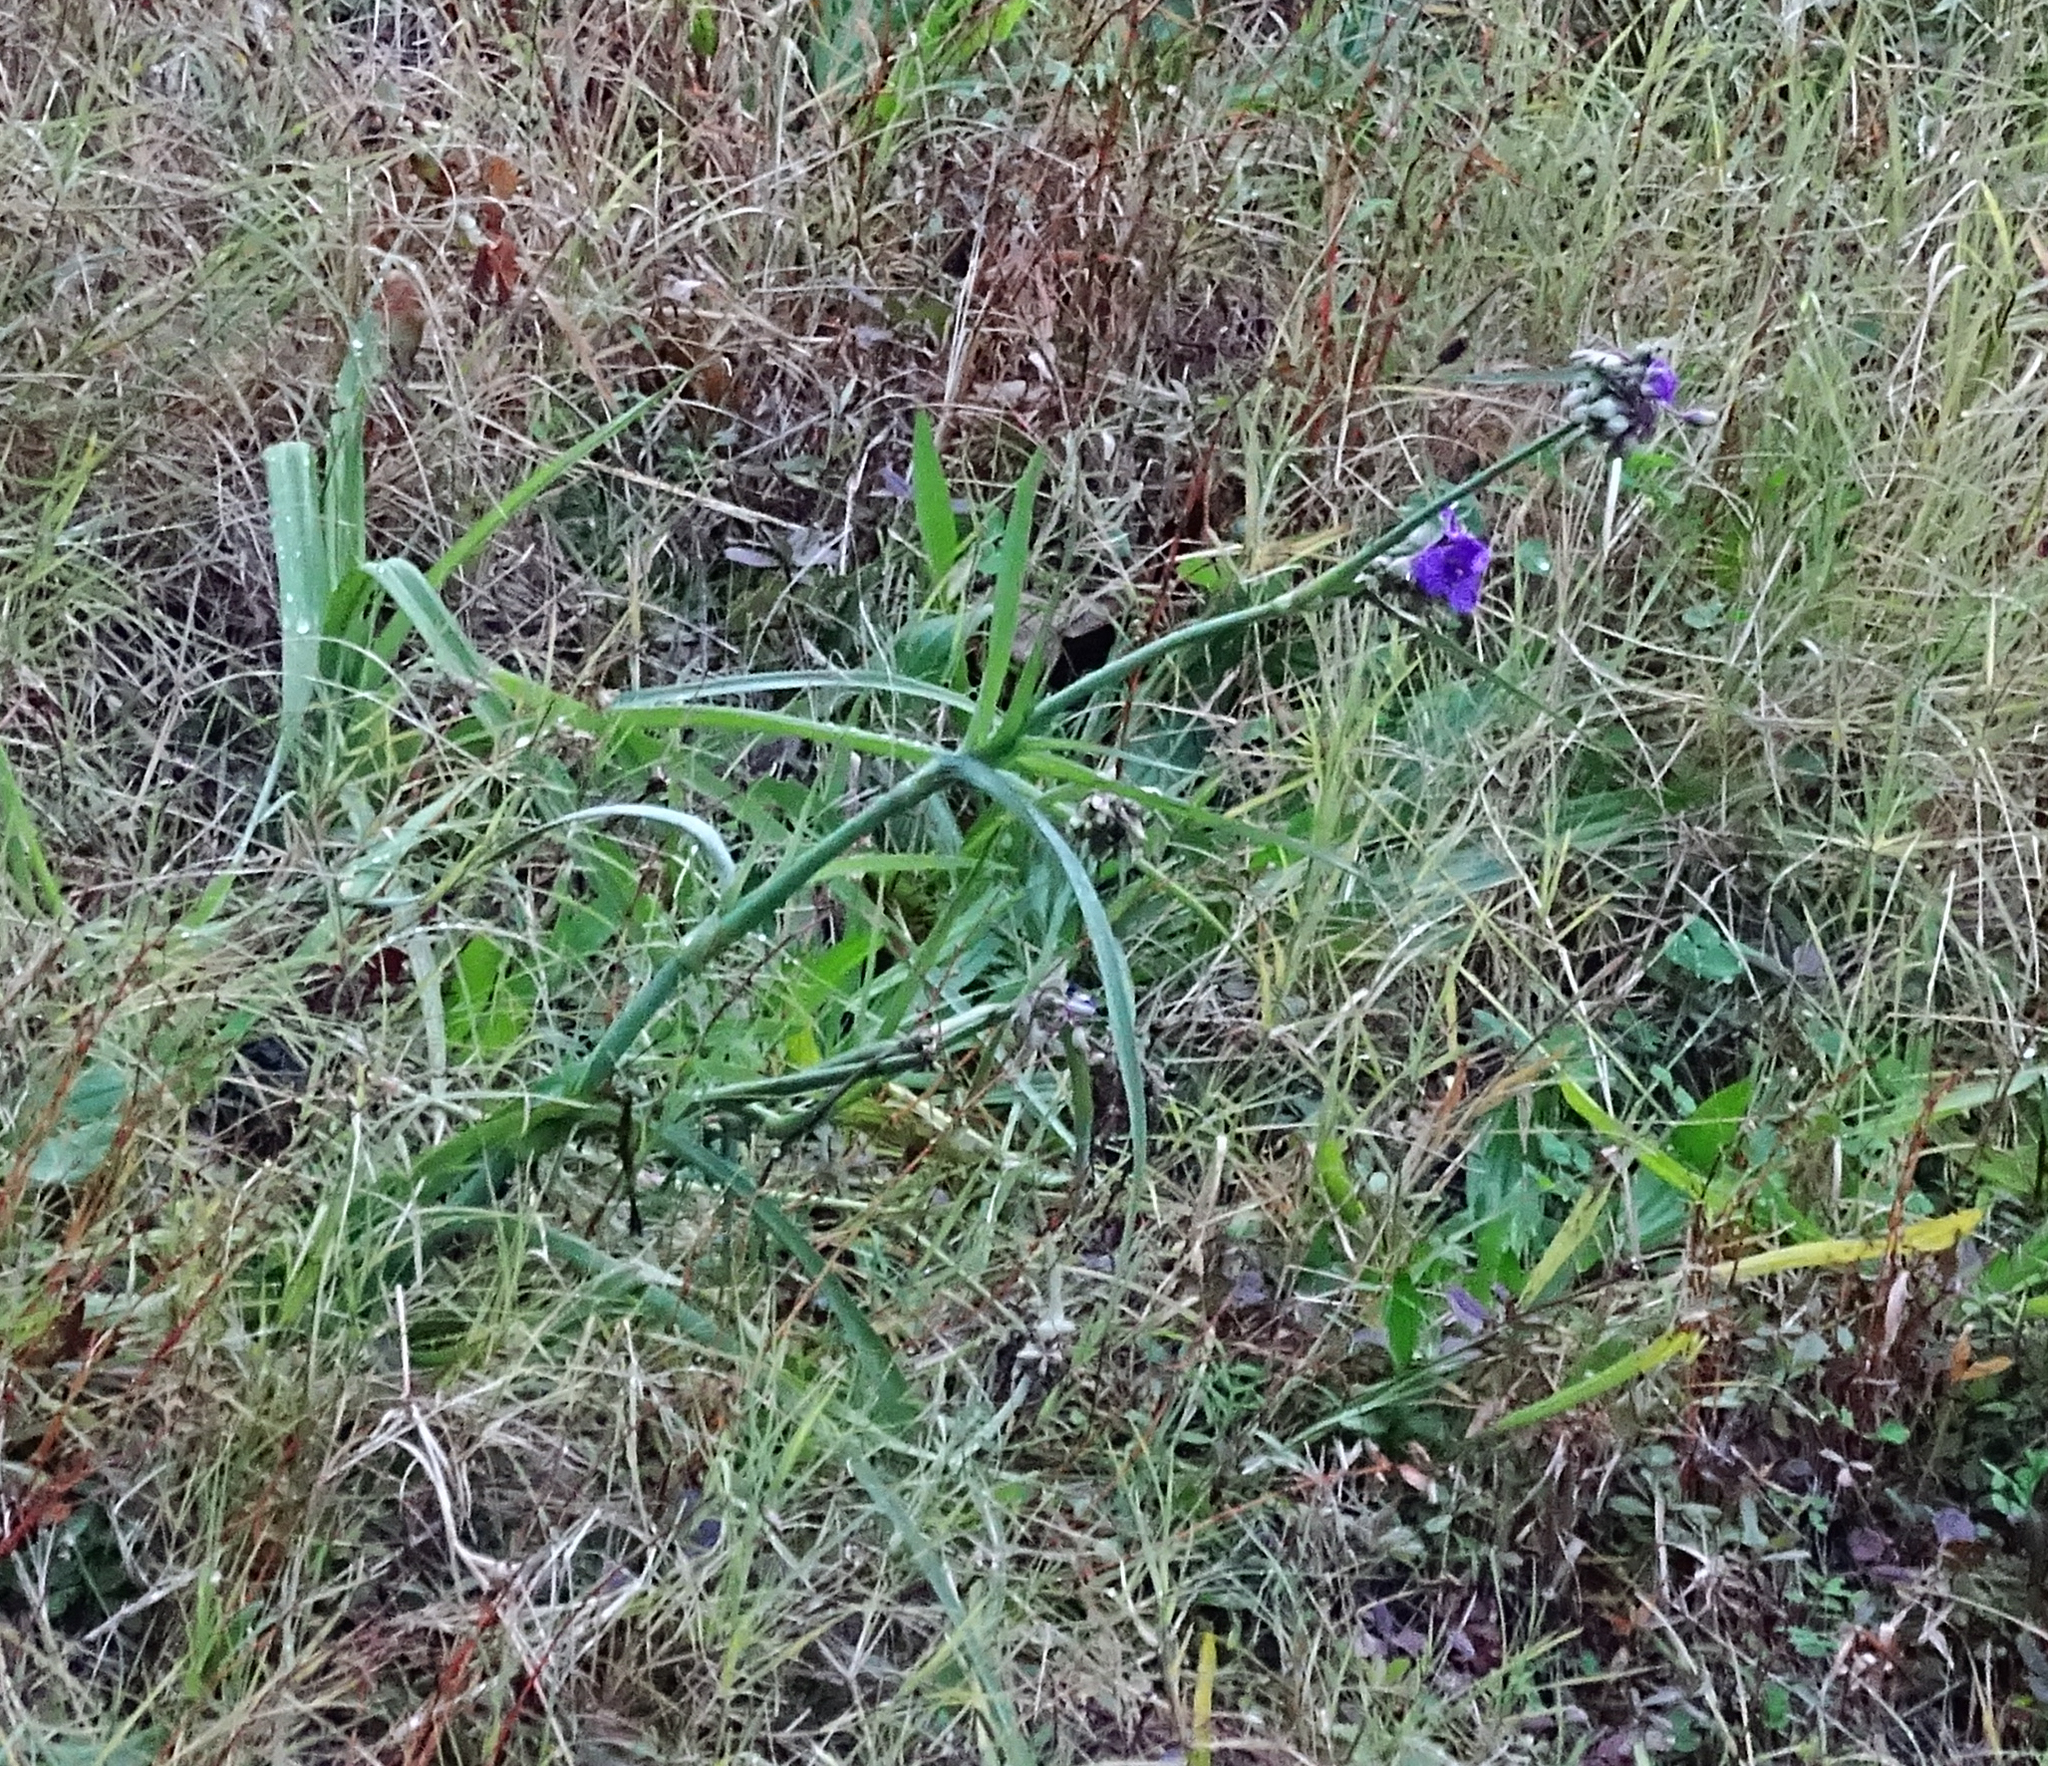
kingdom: Plantae
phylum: Tracheophyta
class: Liliopsida
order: Commelinales
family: Commelinaceae
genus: Tradescantia
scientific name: Tradescantia ohiensis
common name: Ohio spiderwort
